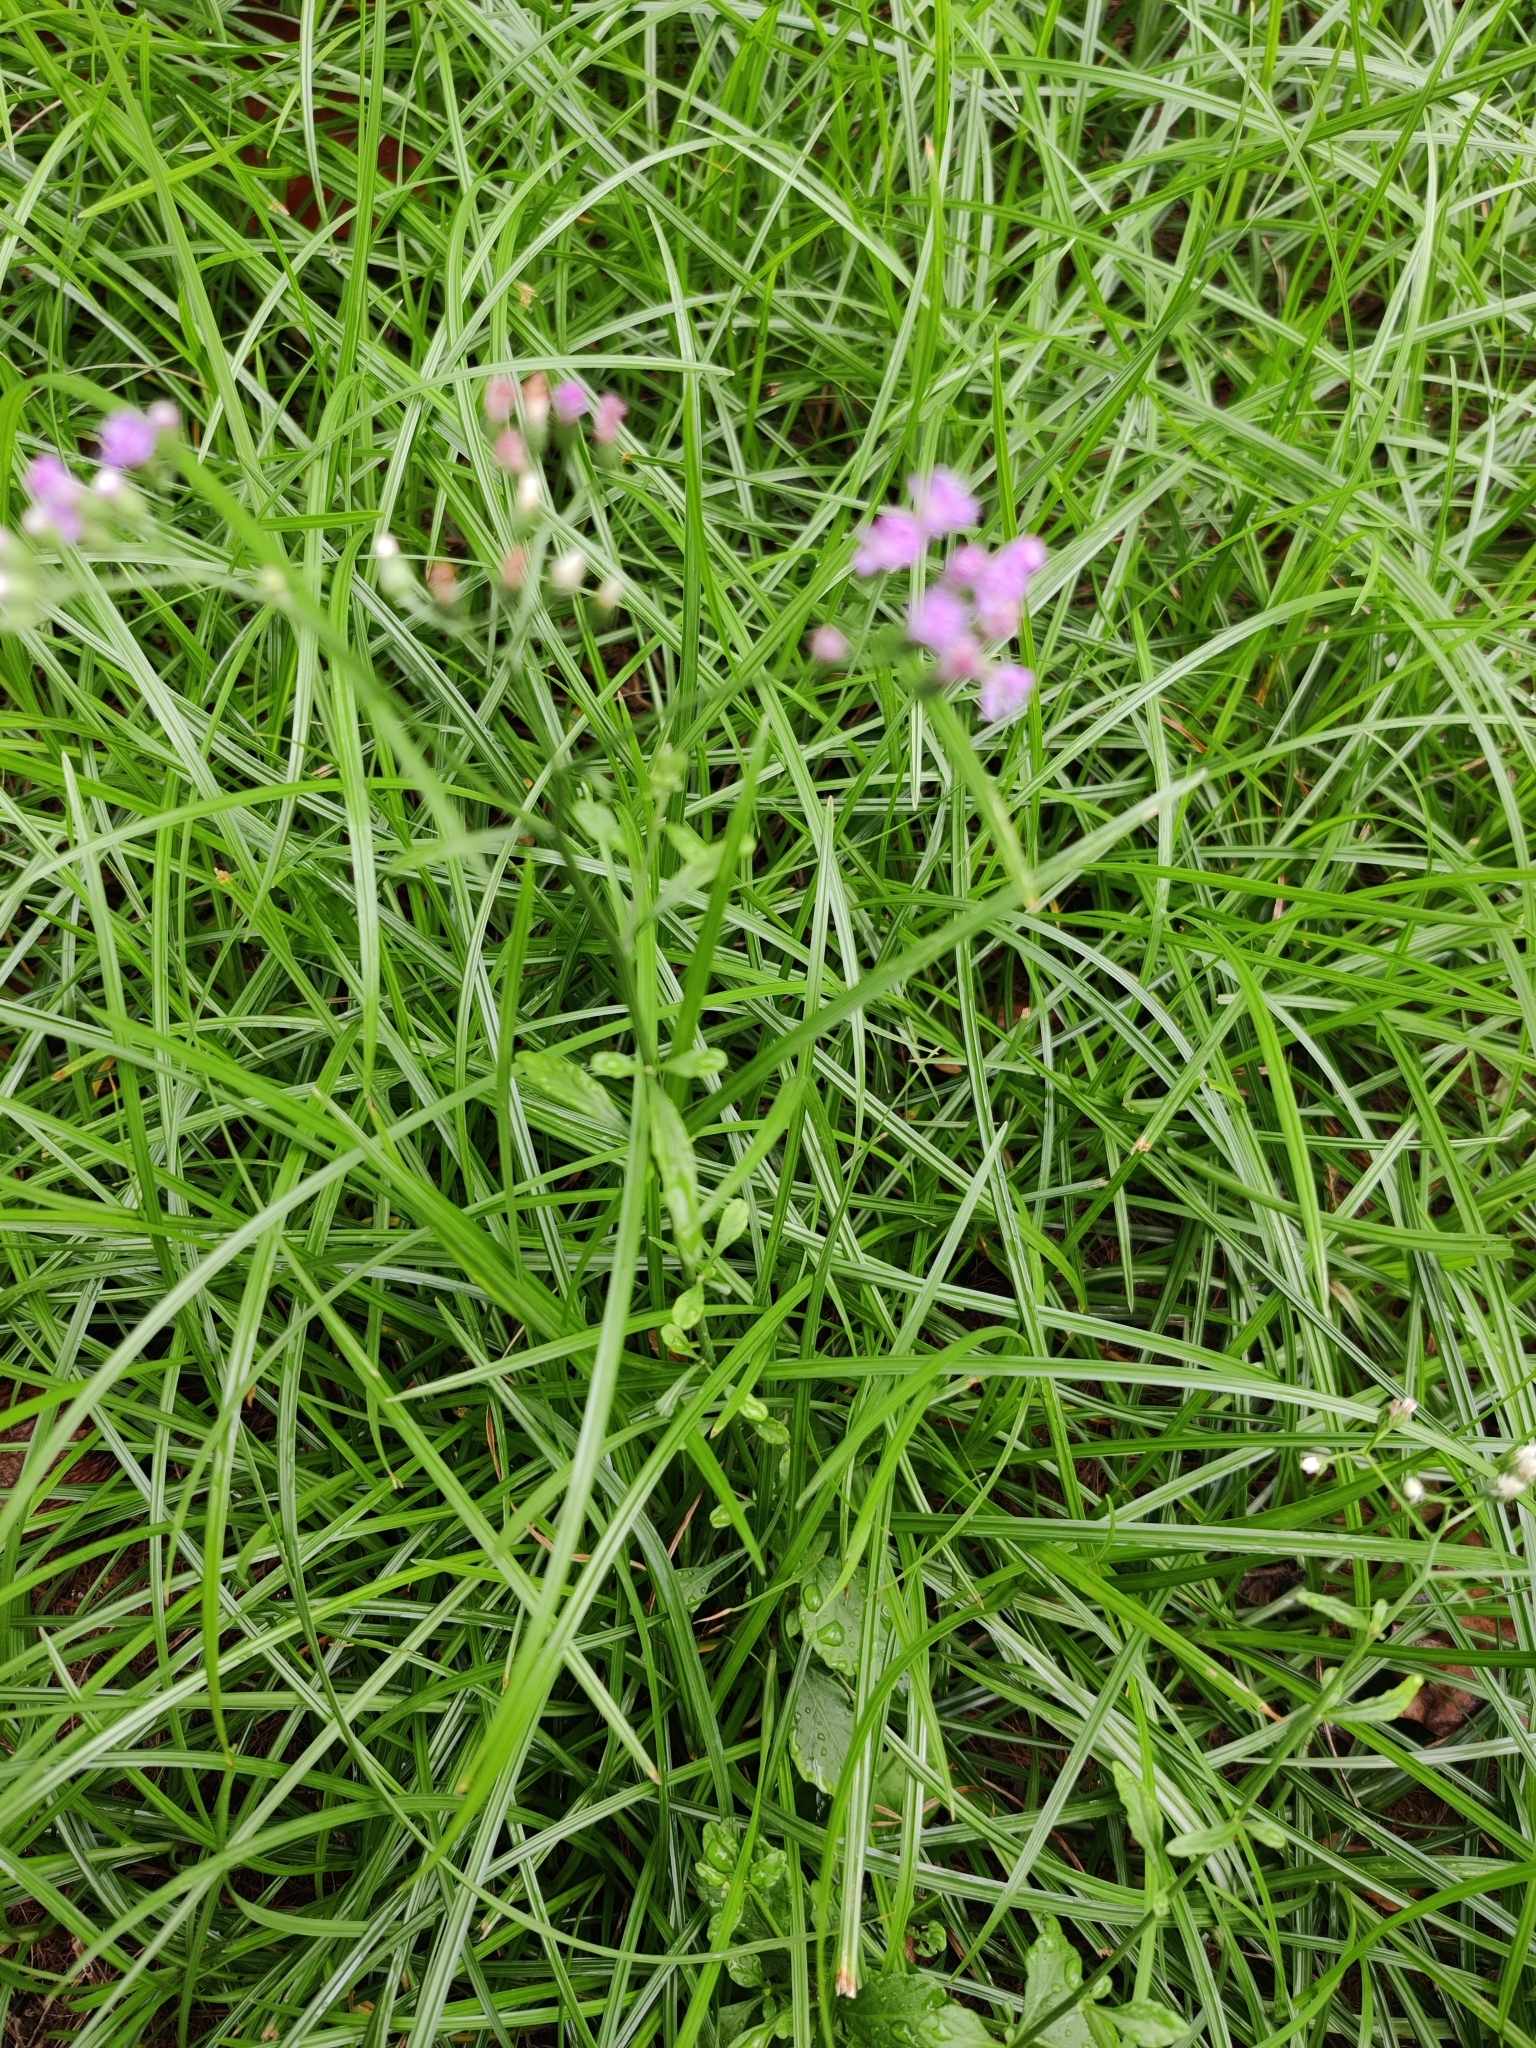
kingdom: Plantae
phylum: Tracheophyta
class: Magnoliopsida
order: Asterales
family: Asteraceae
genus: Cyanthillium
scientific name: Cyanthillium cinereum
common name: Little ironweed
